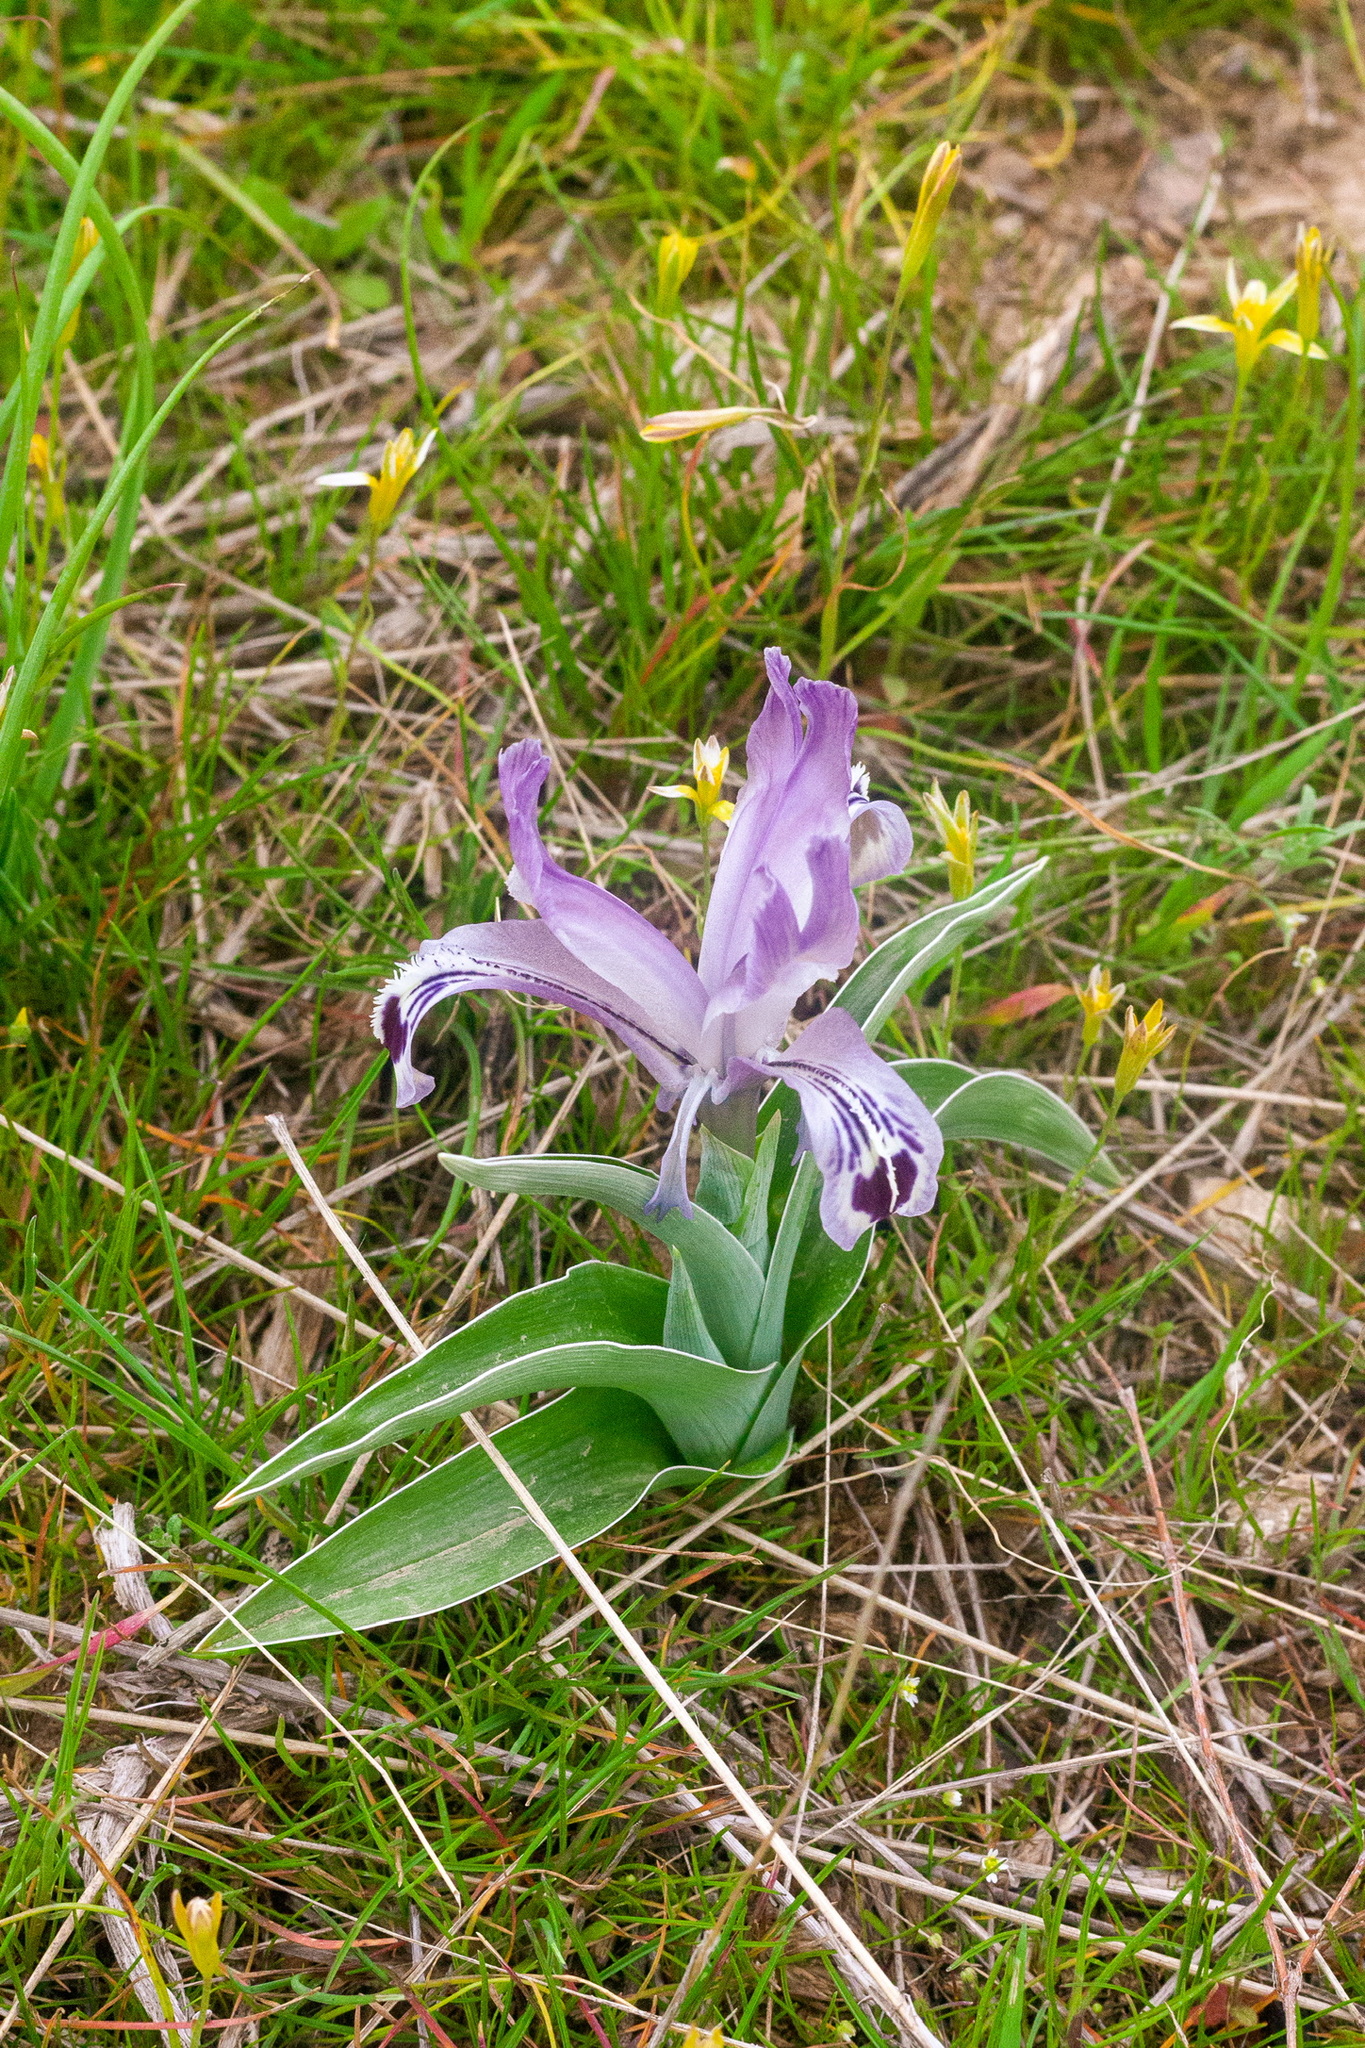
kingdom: Plantae
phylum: Tracheophyta
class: Liliopsida
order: Asparagales
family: Iridaceae
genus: Iris
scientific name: Iris kuschakewiczii
